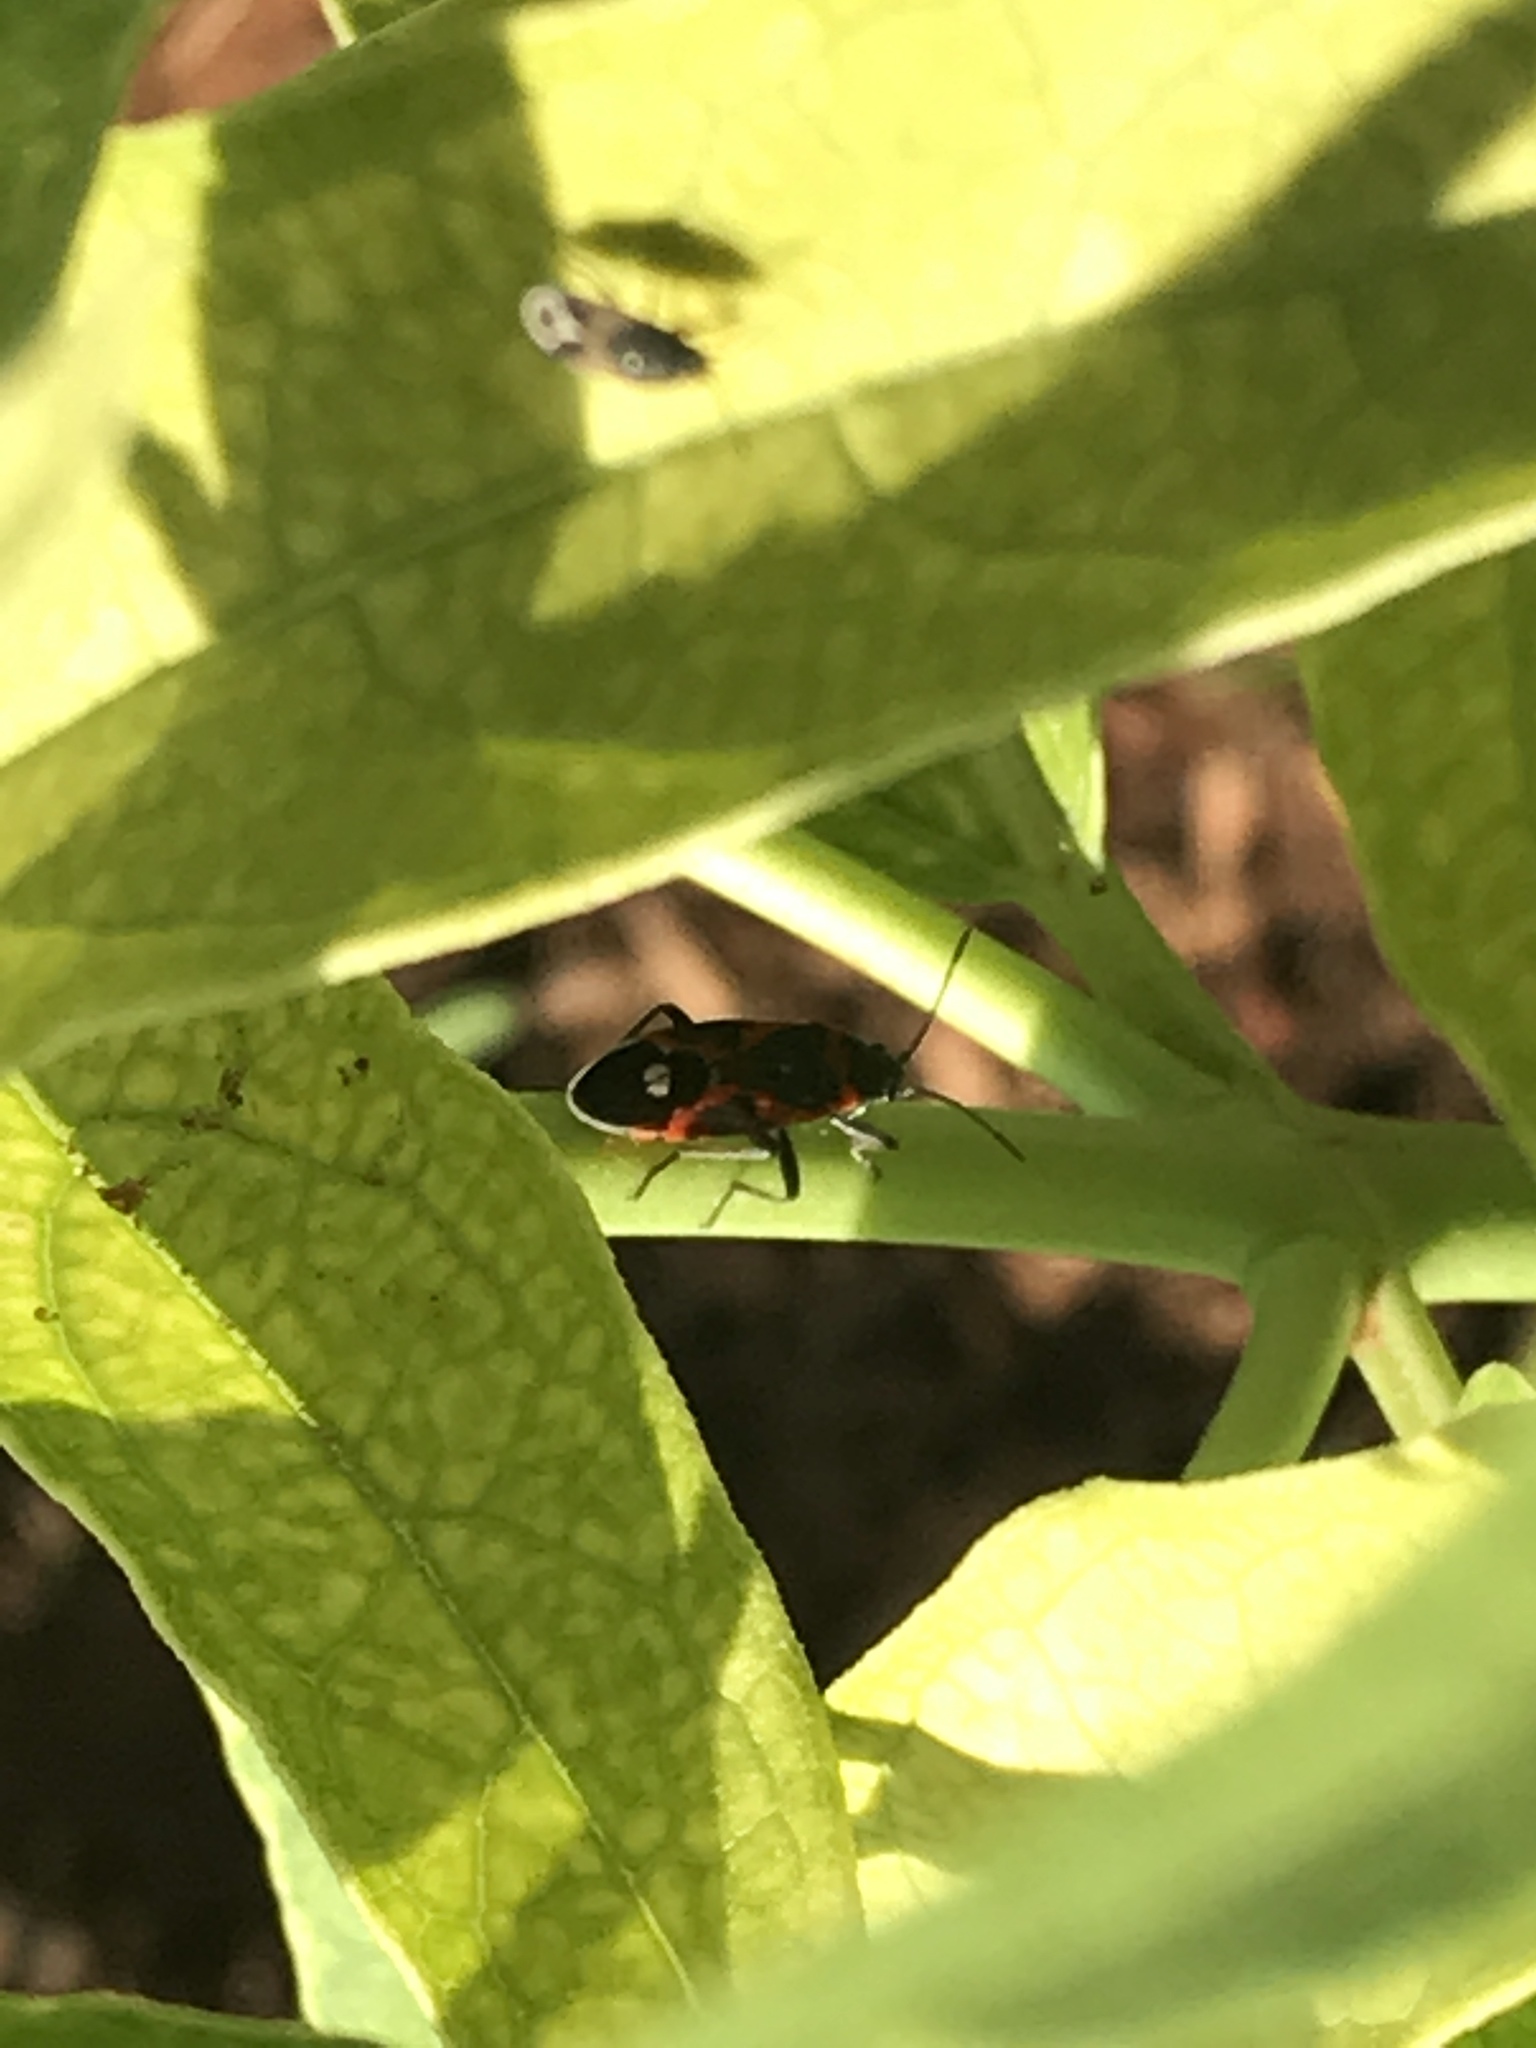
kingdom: Animalia
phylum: Arthropoda
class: Insecta
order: Hemiptera
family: Lygaeidae
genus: Lygaeus
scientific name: Lygaeus kalmii
